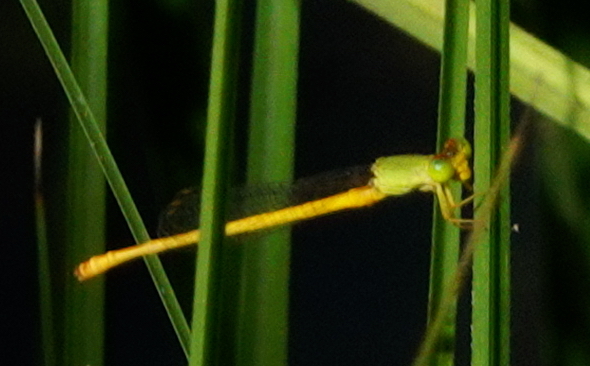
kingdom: Animalia
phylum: Arthropoda
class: Insecta
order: Odonata
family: Coenagrionidae
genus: Ceriagrion
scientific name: Ceriagrion coromandelianum
